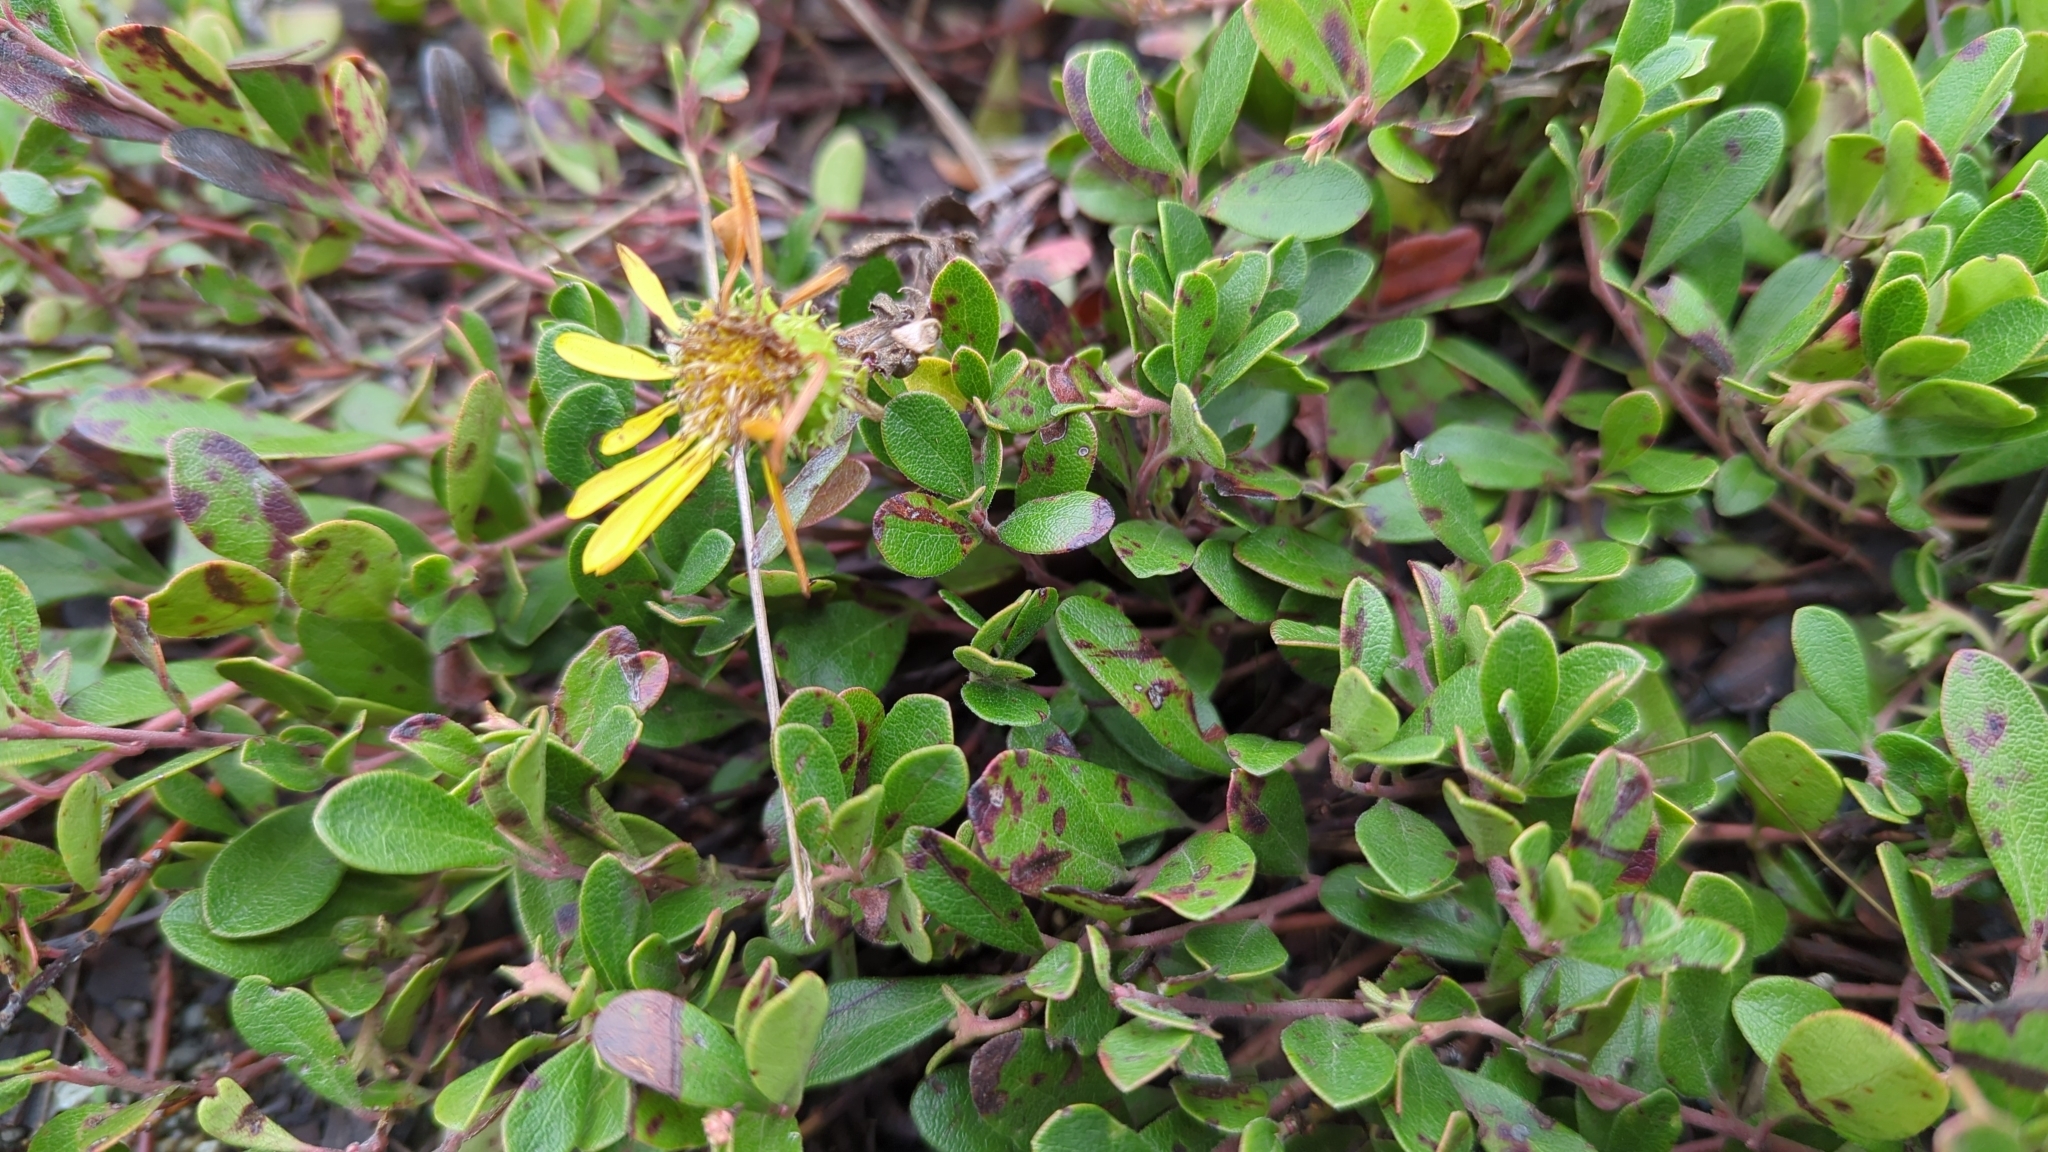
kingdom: Plantae
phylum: Tracheophyta
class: Magnoliopsida
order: Ericales
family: Ericaceae
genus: Arctostaphylos
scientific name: Arctostaphylos uva-ursi
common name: Bearberry
